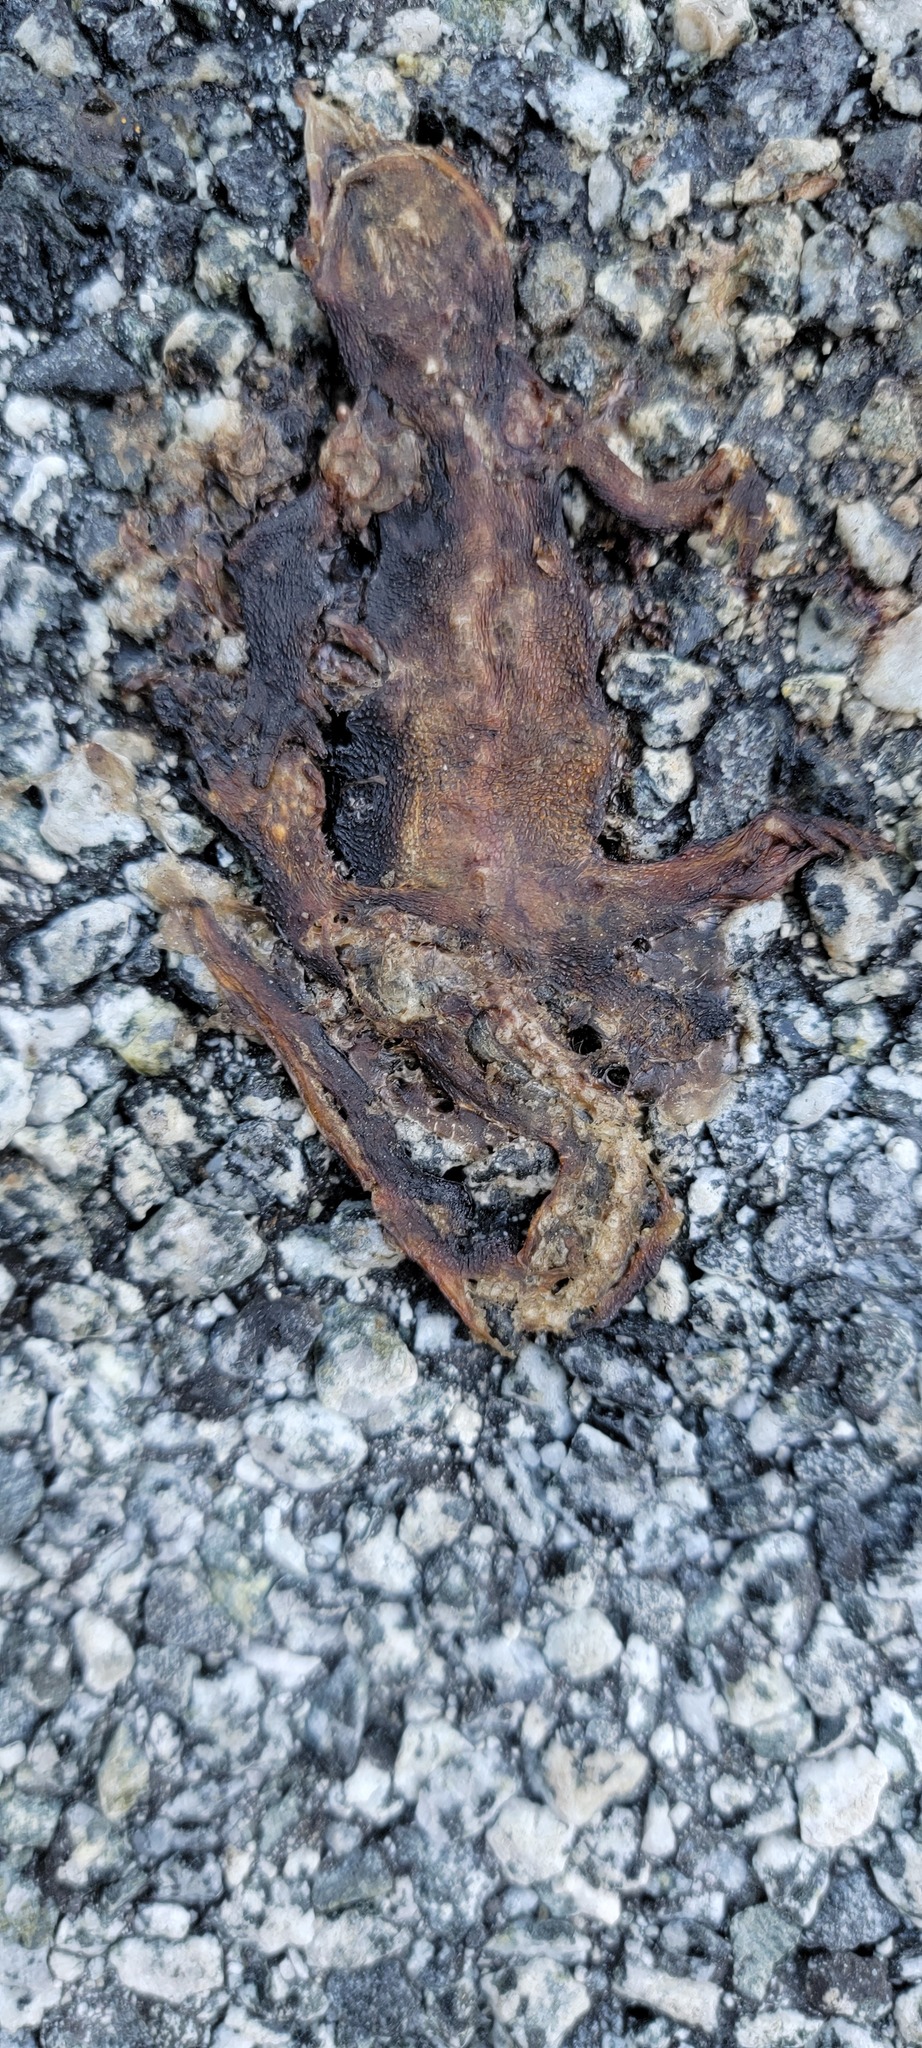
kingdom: Animalia
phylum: Chordata
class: Amphibia
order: Caudata
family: Salamandridae
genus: Taricha
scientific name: Taricha
